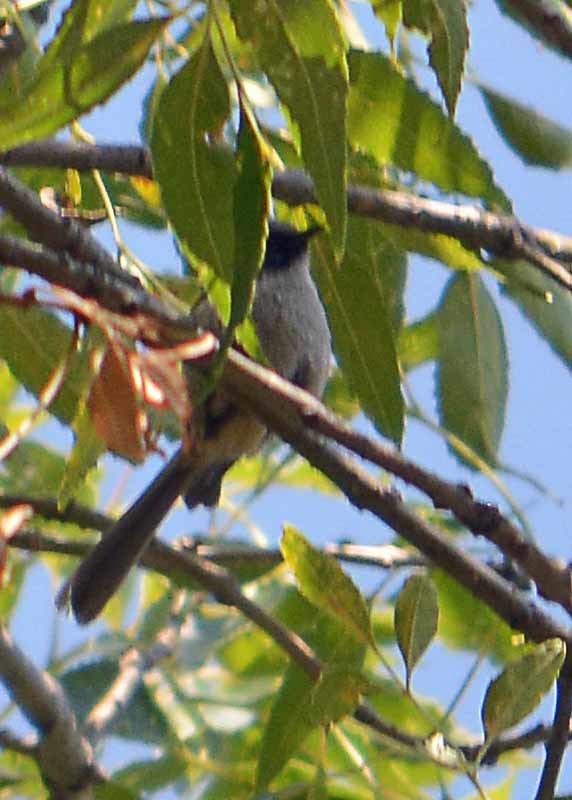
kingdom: Animalia
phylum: Chordata
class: Aves
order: Passeriformes
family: Aegithalidae
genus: Psaltriparus
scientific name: Psaltriparus minimus
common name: American bushtit
